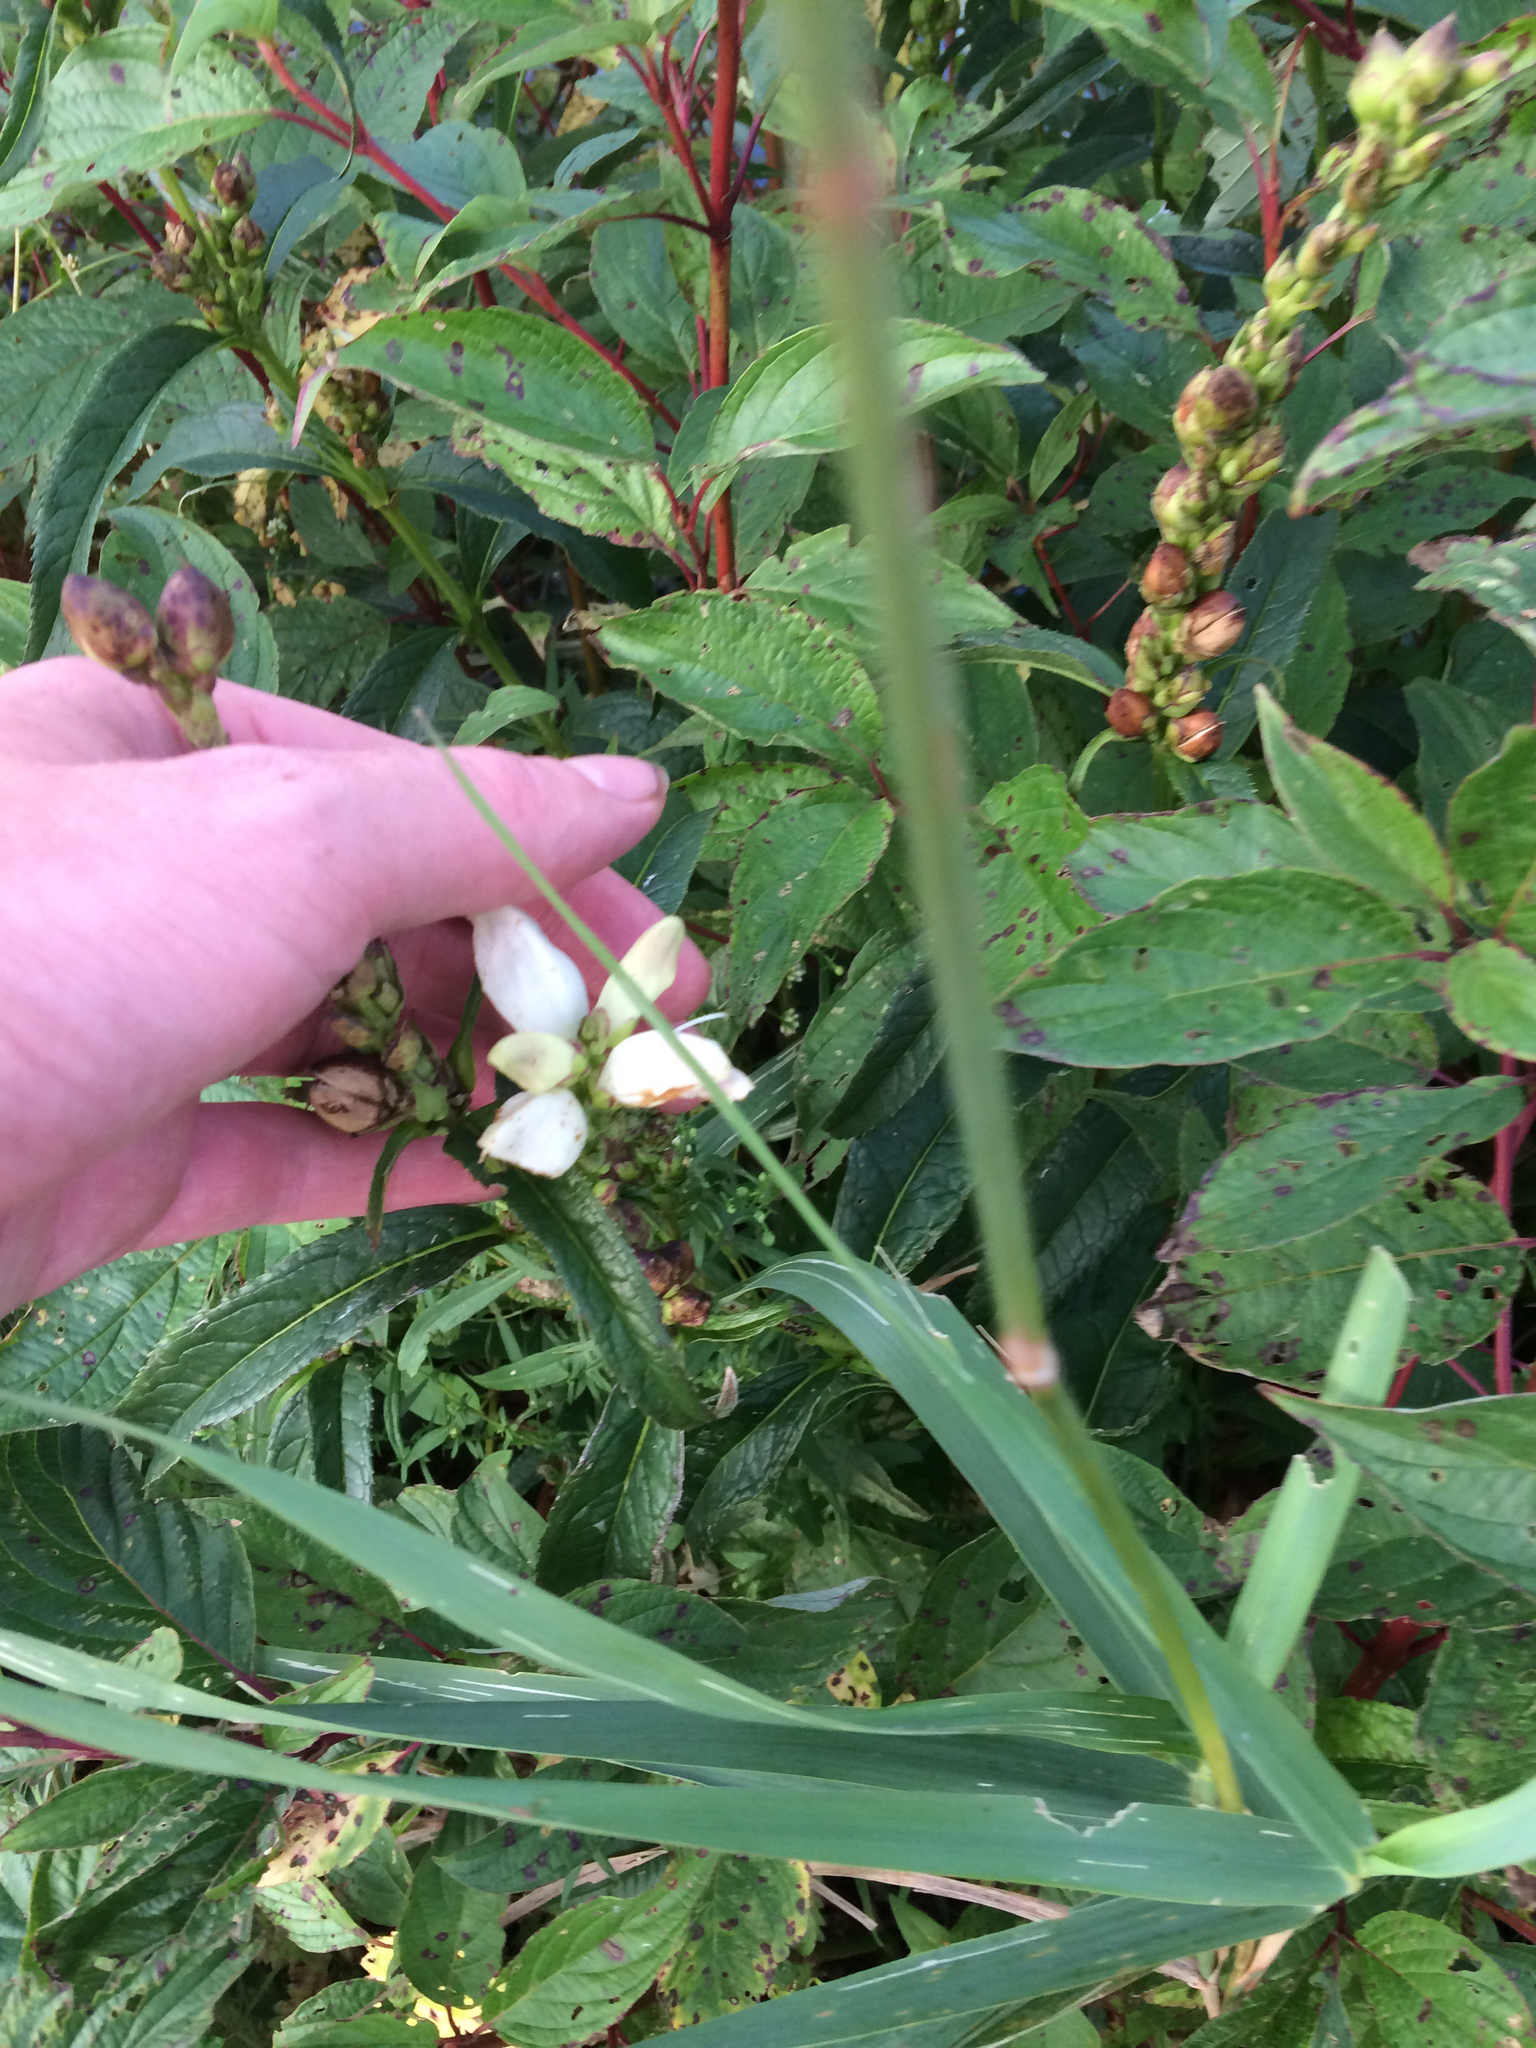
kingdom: Plantae
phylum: Tracheophyta
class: Magnoliopsida
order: Lamiales
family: Plantaginaceae
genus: Chelone
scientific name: Chelone glabra
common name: Snakehead
